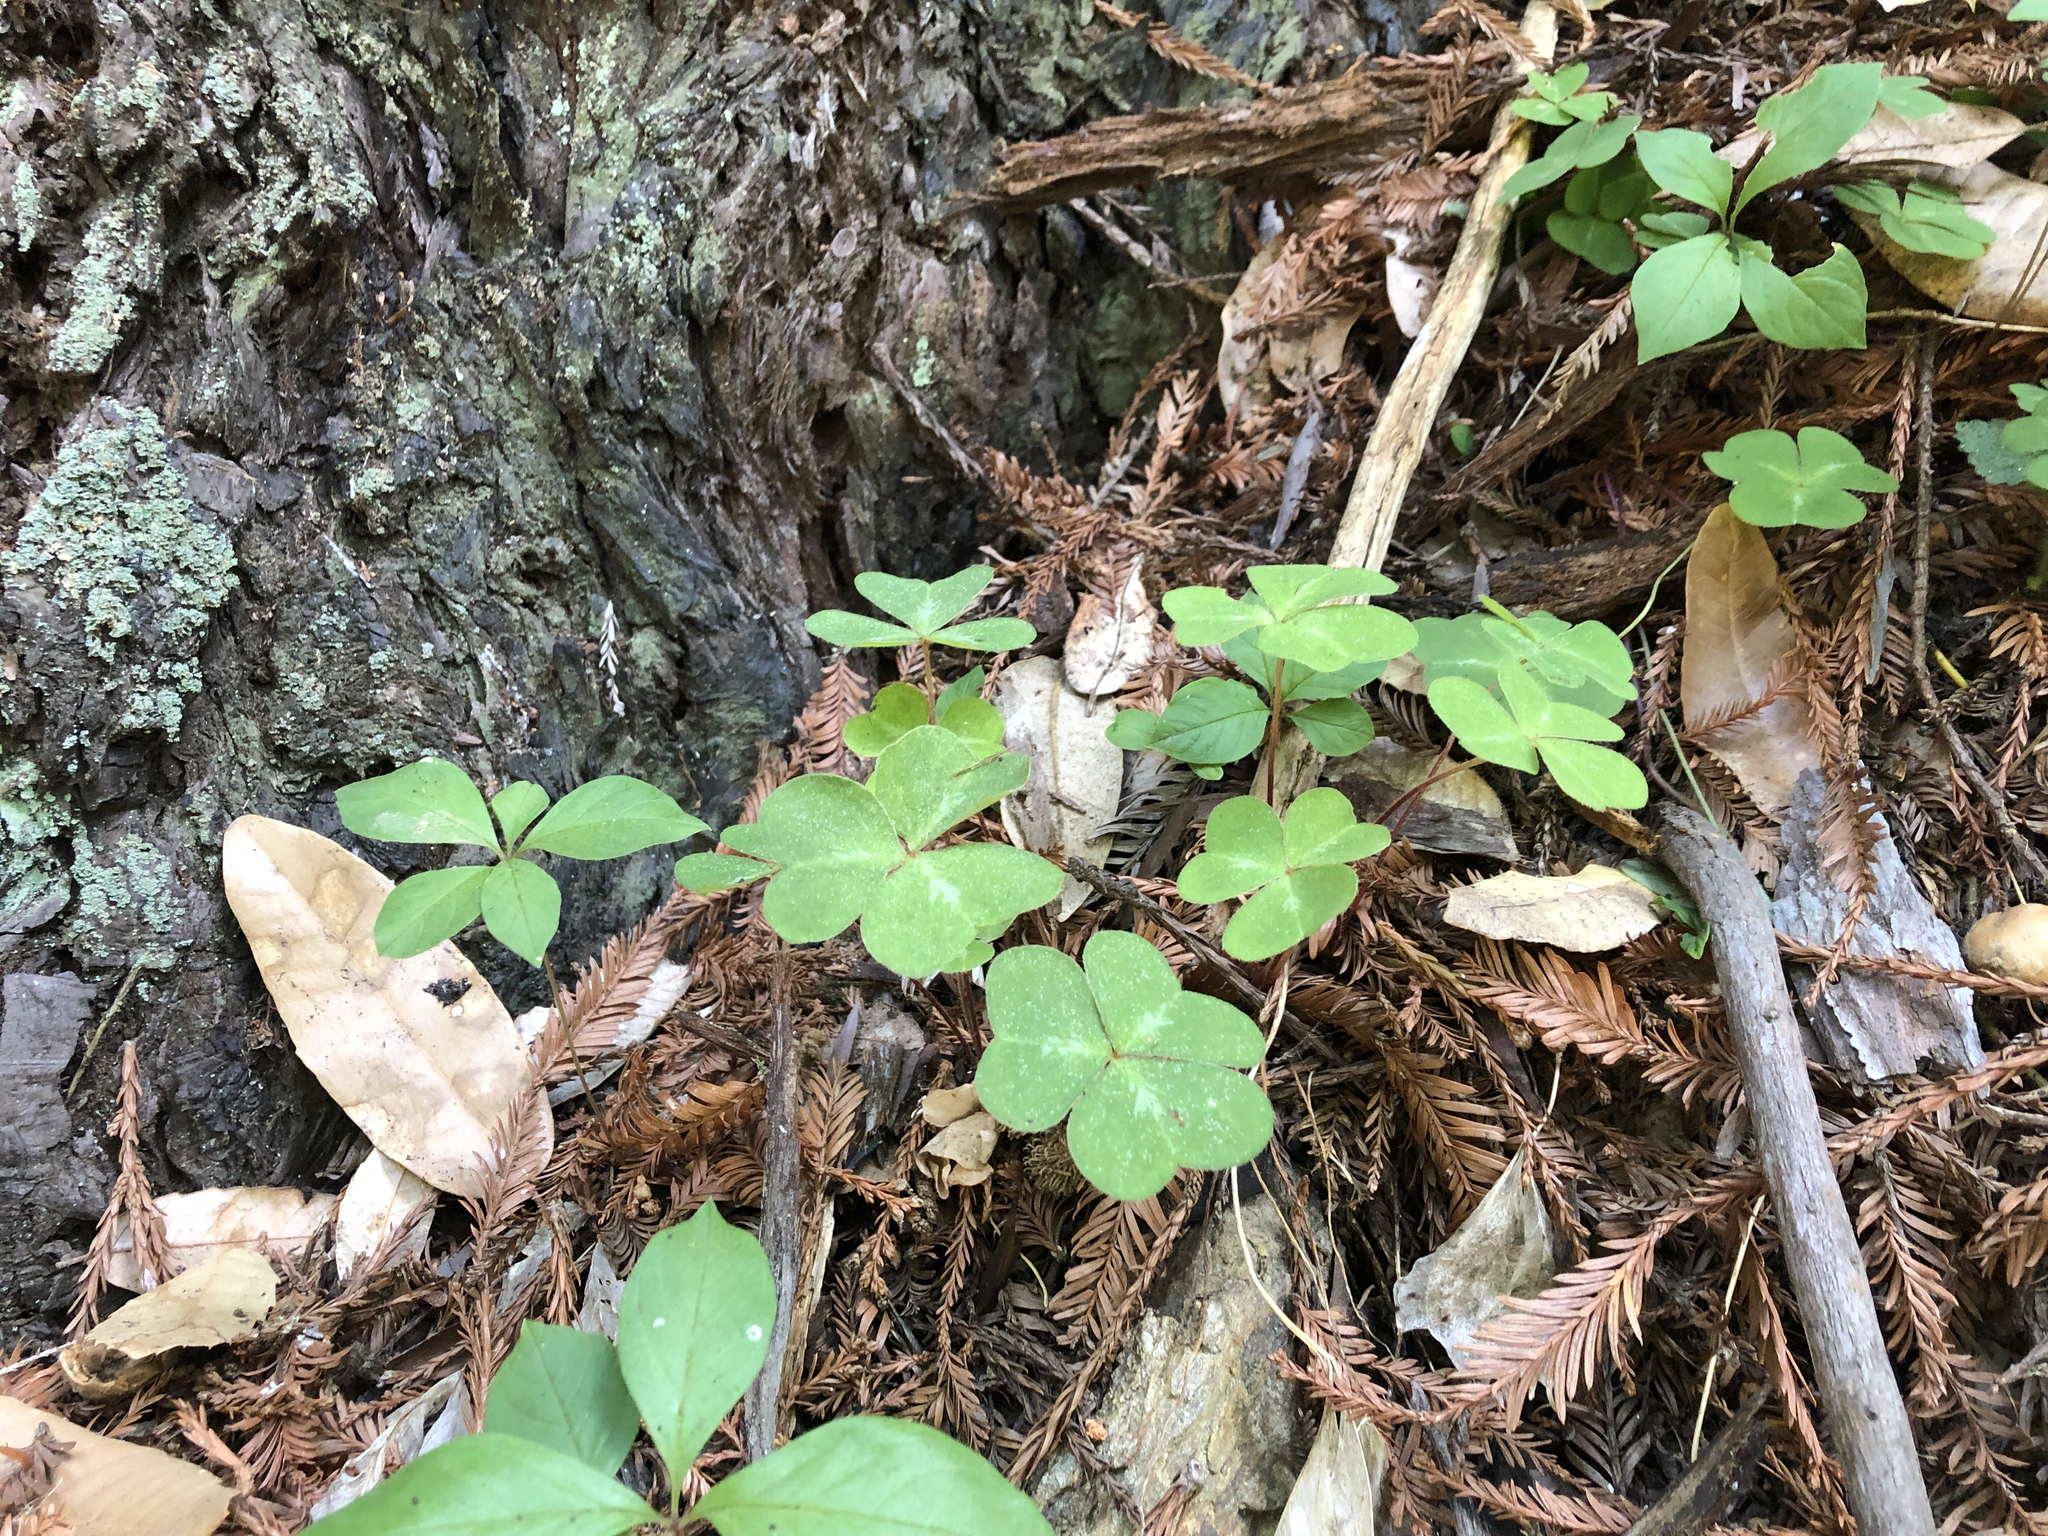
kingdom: Plantae
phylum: Tracheophyta
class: Magnoliopsida
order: Oxalidales
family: Oxalidaceae
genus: Oxalis
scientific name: Oxalis oregana
